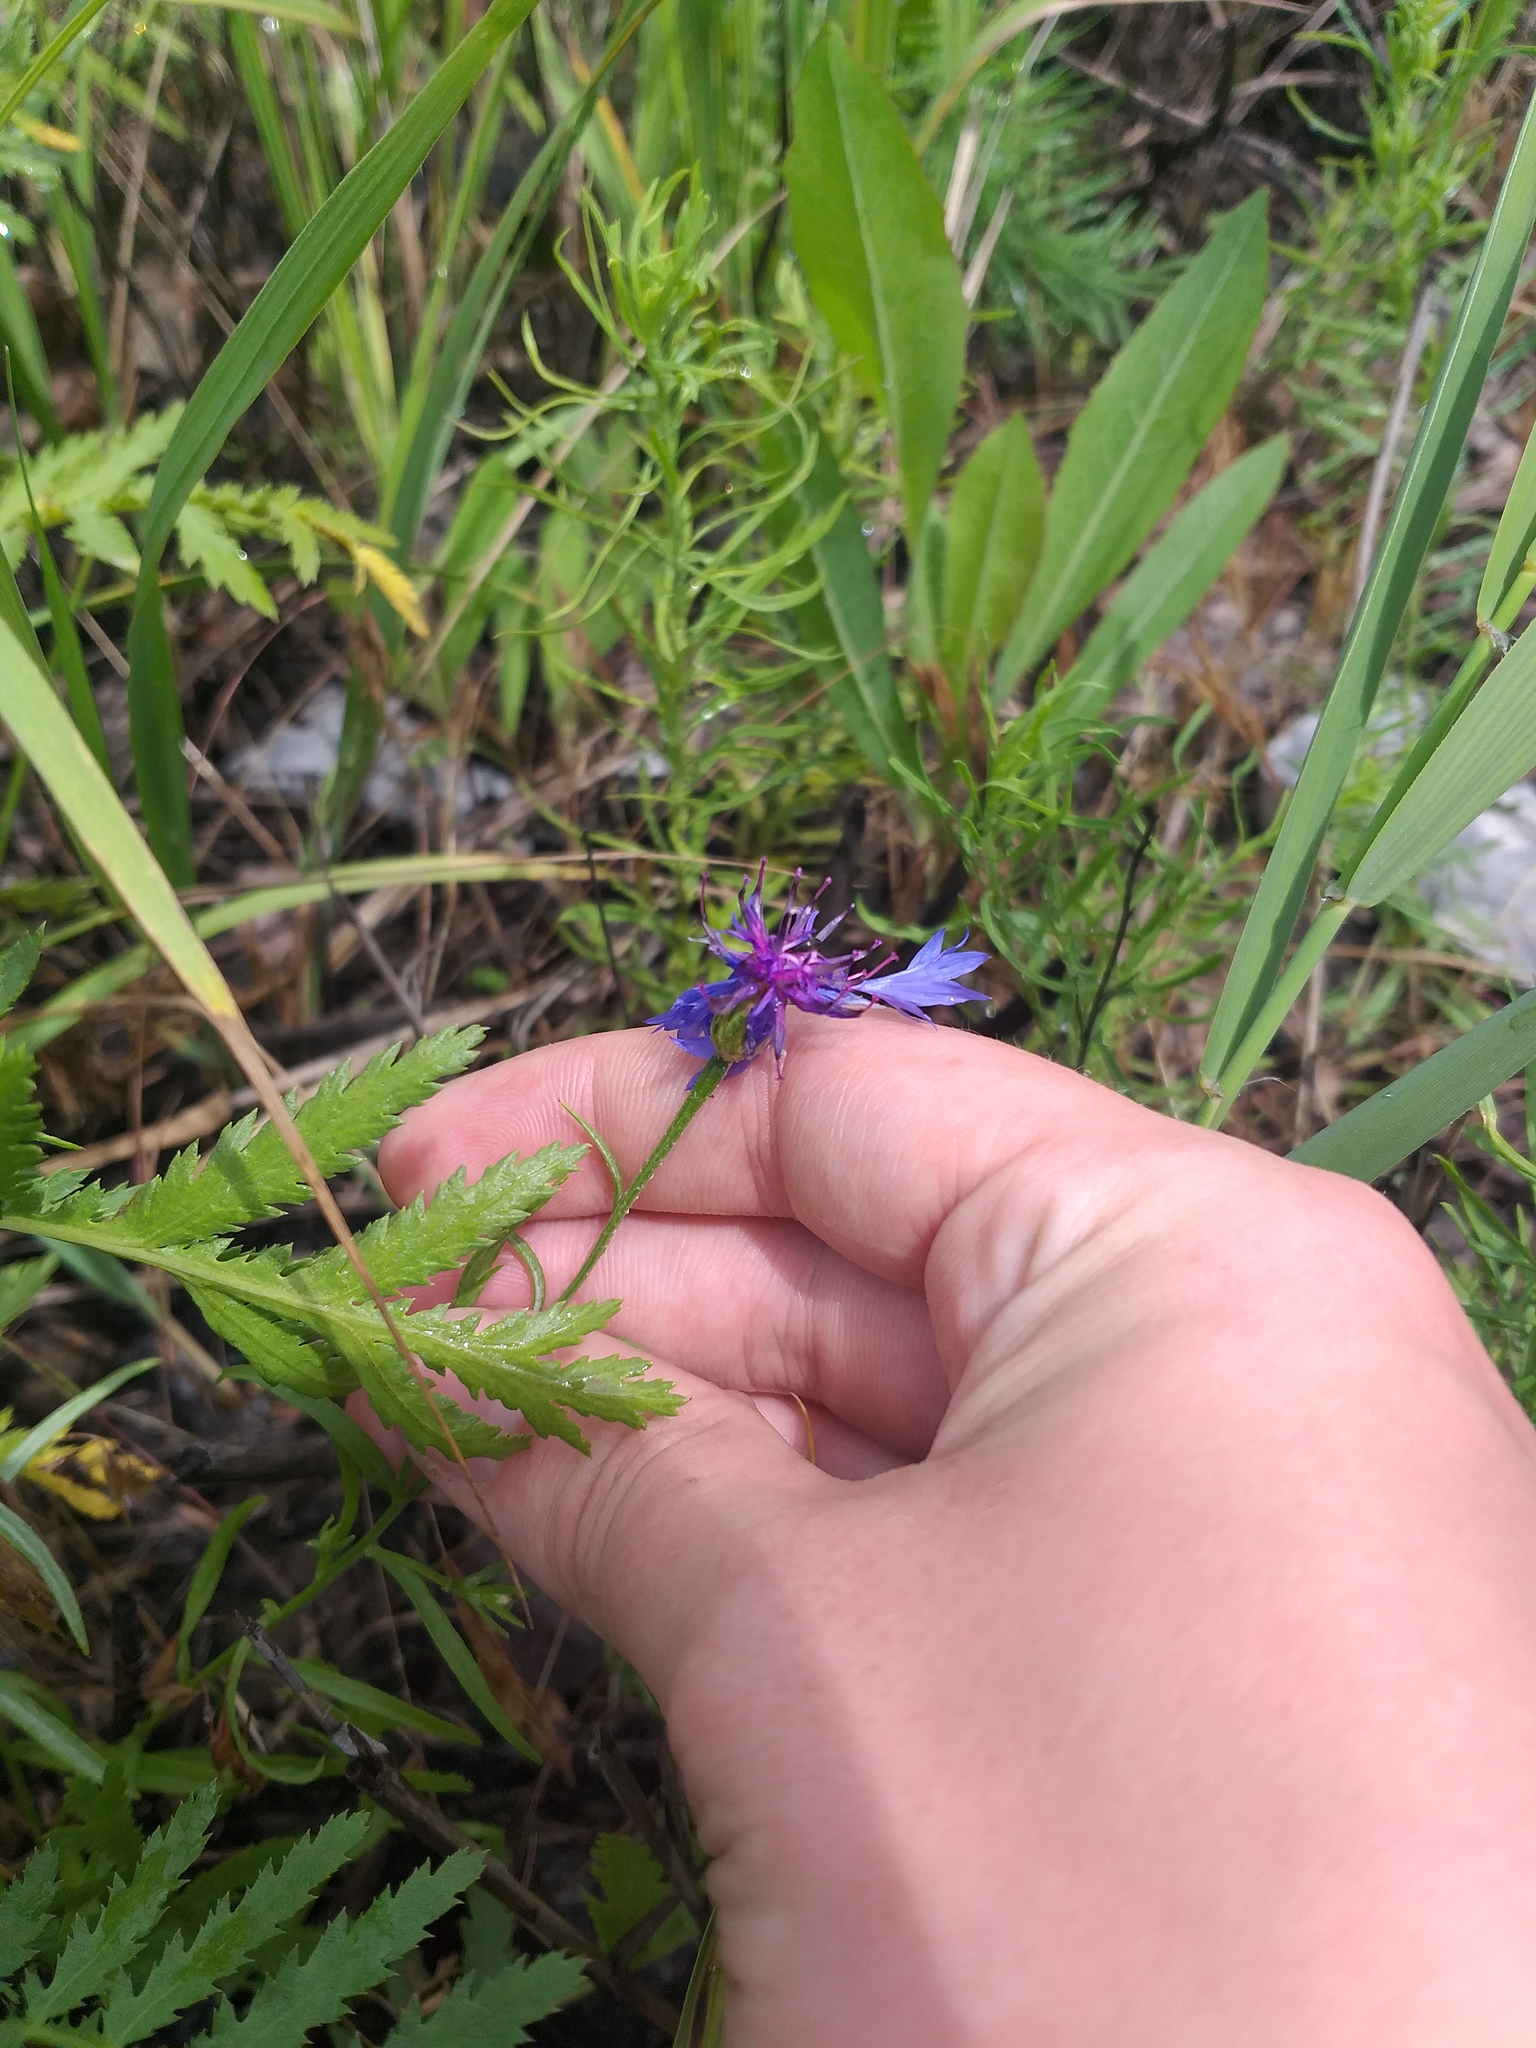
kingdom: Plantae
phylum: Tracheophyta
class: Magnoliopsida
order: Asterales
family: Asteraceae
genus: Centaurea
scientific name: Centaurea cyanus
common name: Cornflower
